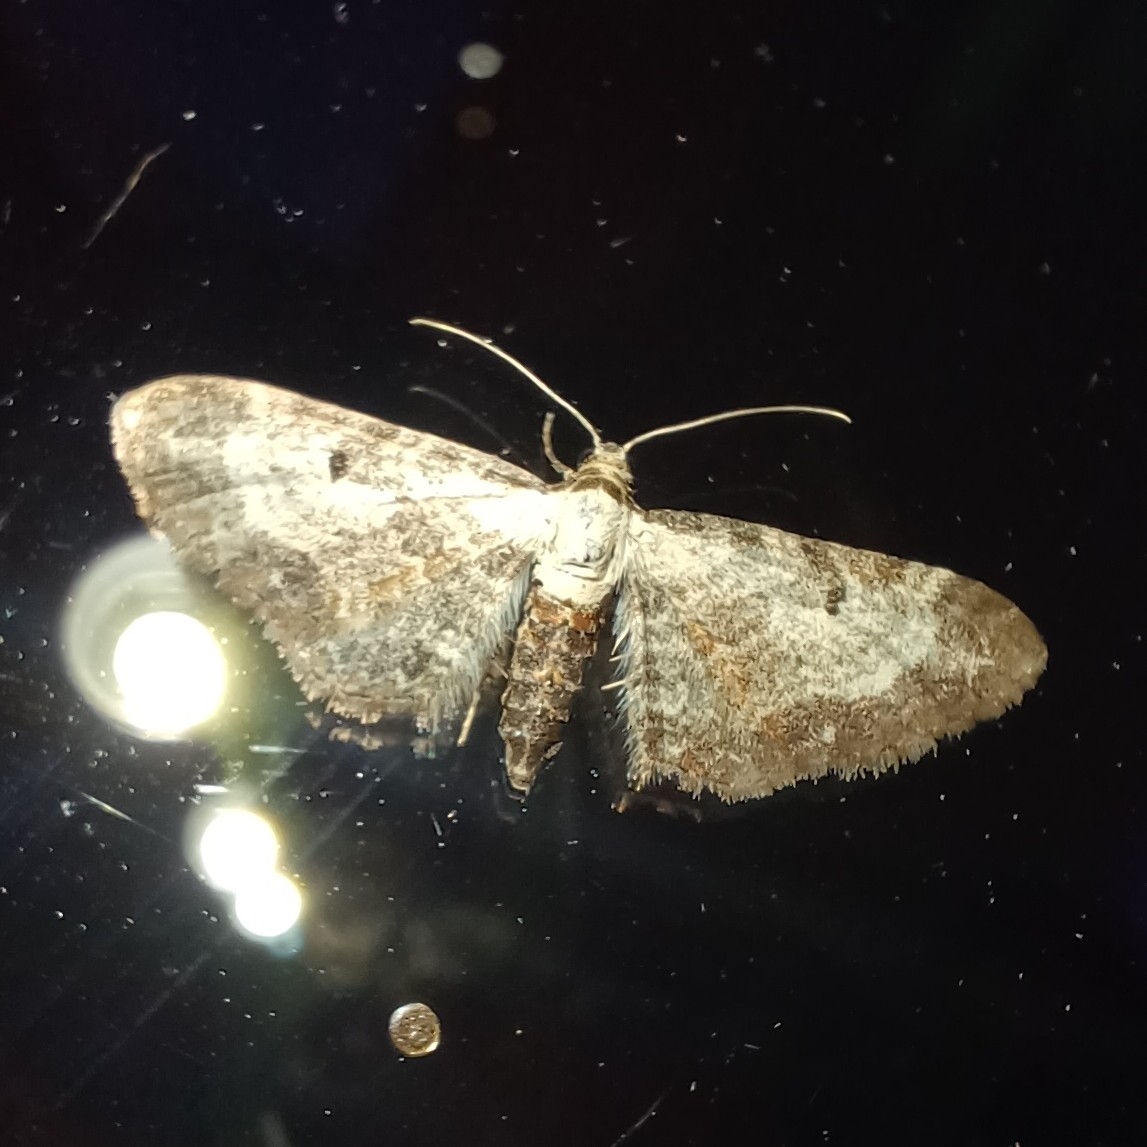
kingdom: Animalia
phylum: Arthropoda
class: Insecta
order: Lepidoptera
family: Geometridae
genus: Eupithecia
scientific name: Eupithecia succenturiata
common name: Bordered pug
